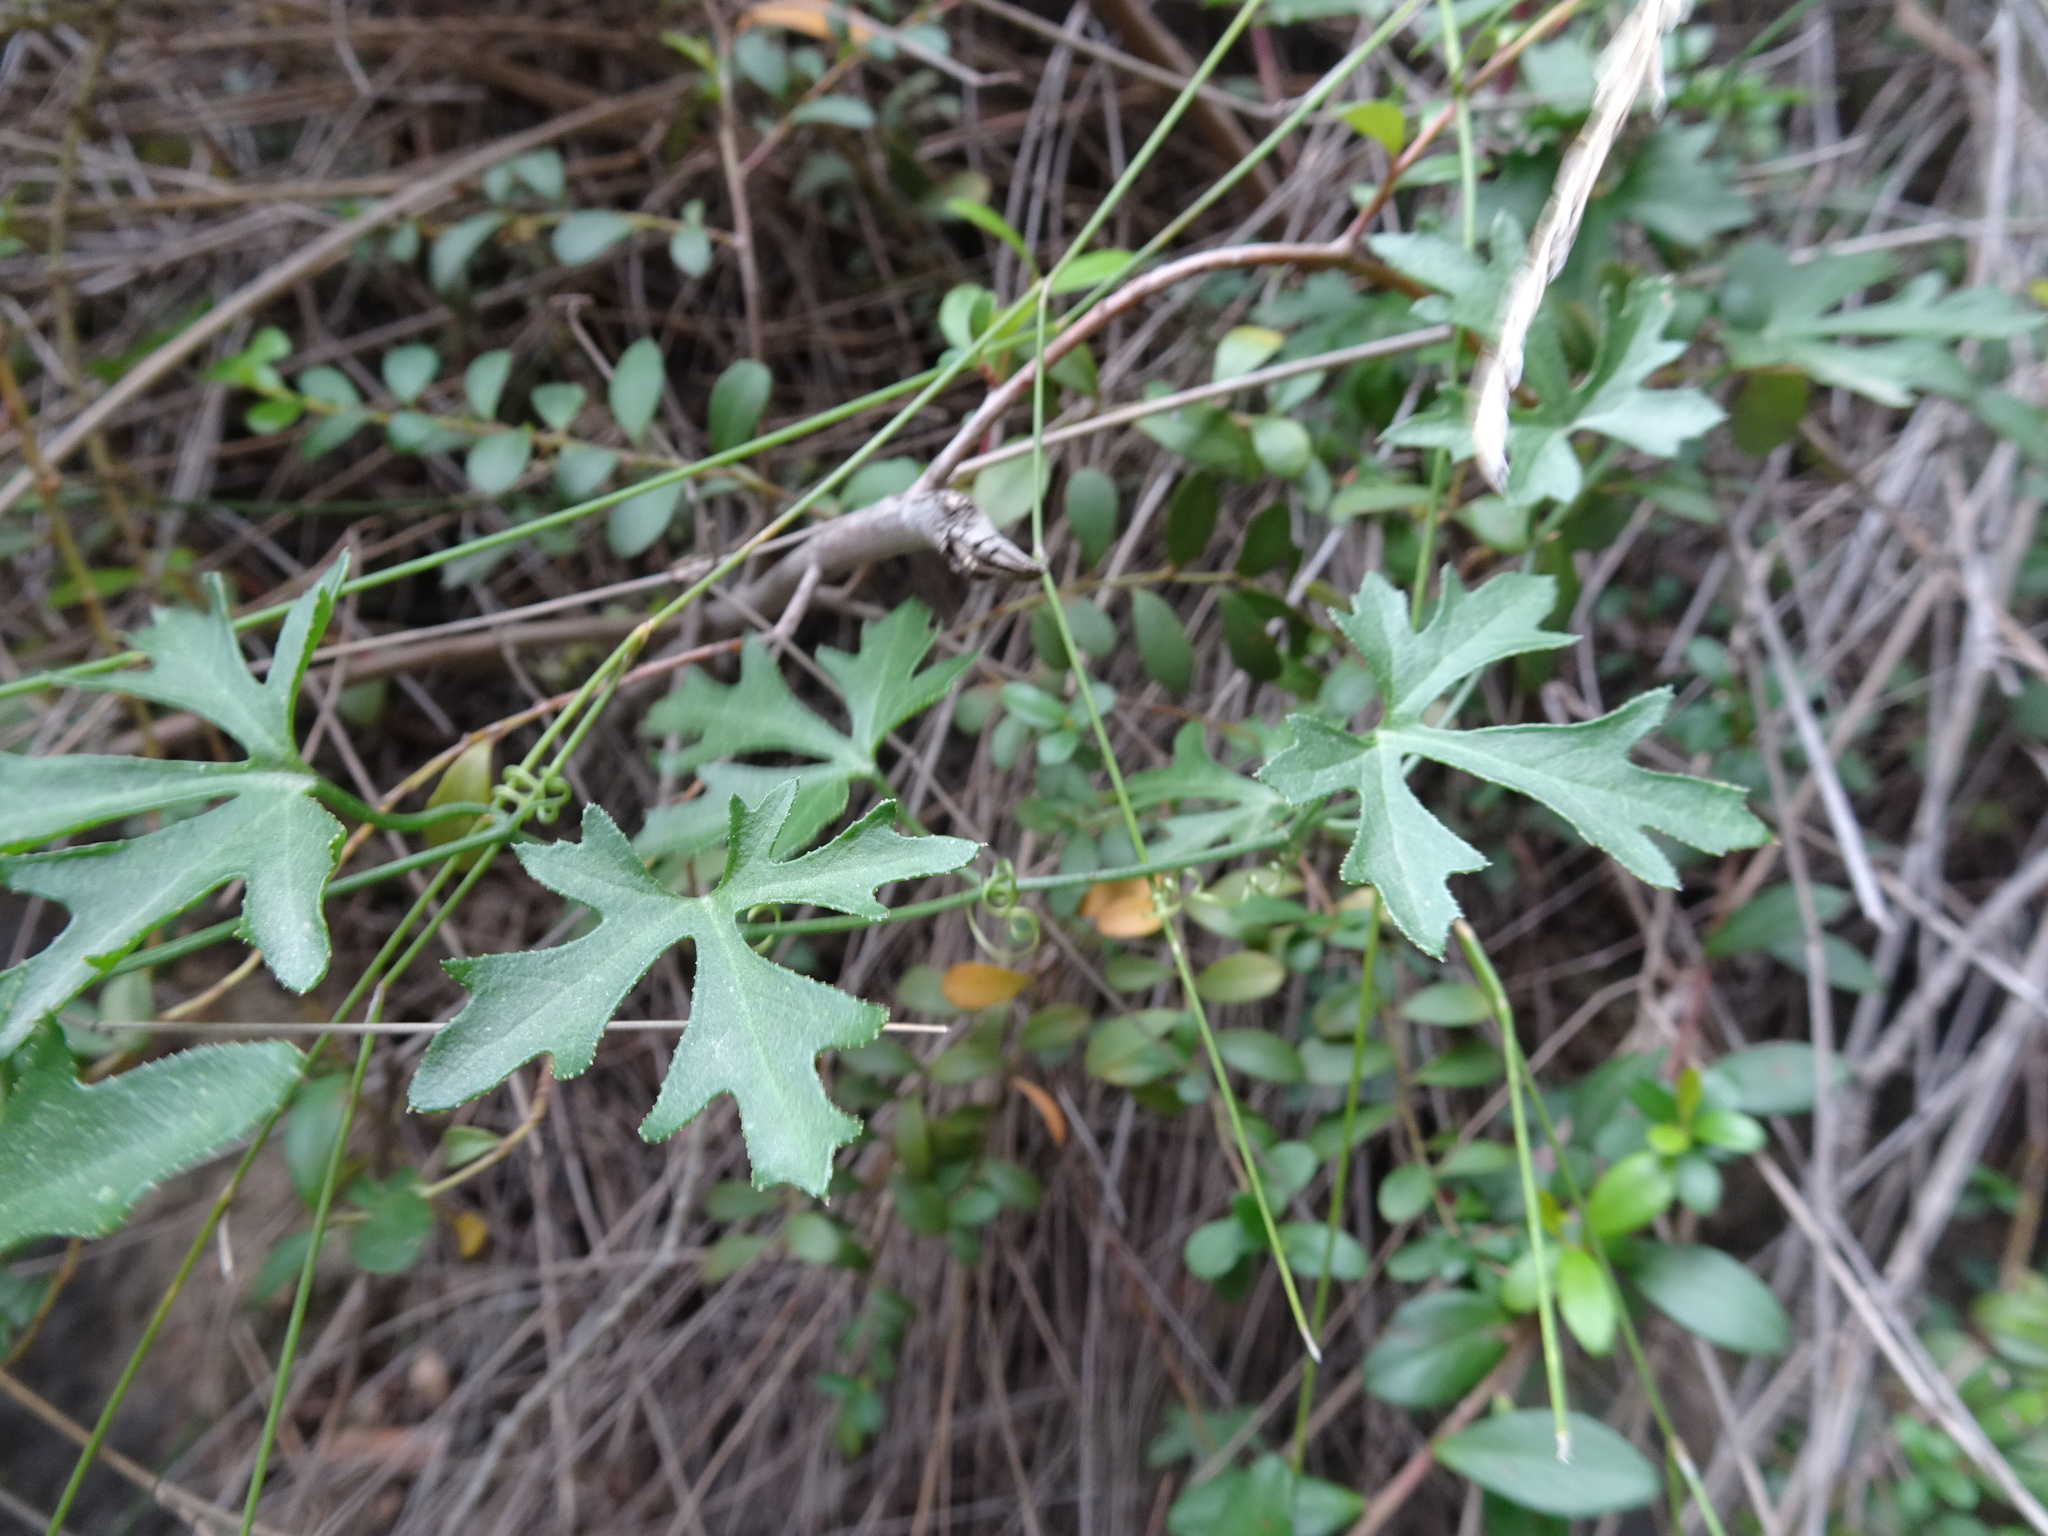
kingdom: Plantae
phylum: Tracheophyta
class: Magnoliopsida
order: Cucurbitales
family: Cucurbitaceae
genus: Kedrostis
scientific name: Kedrostis africana
